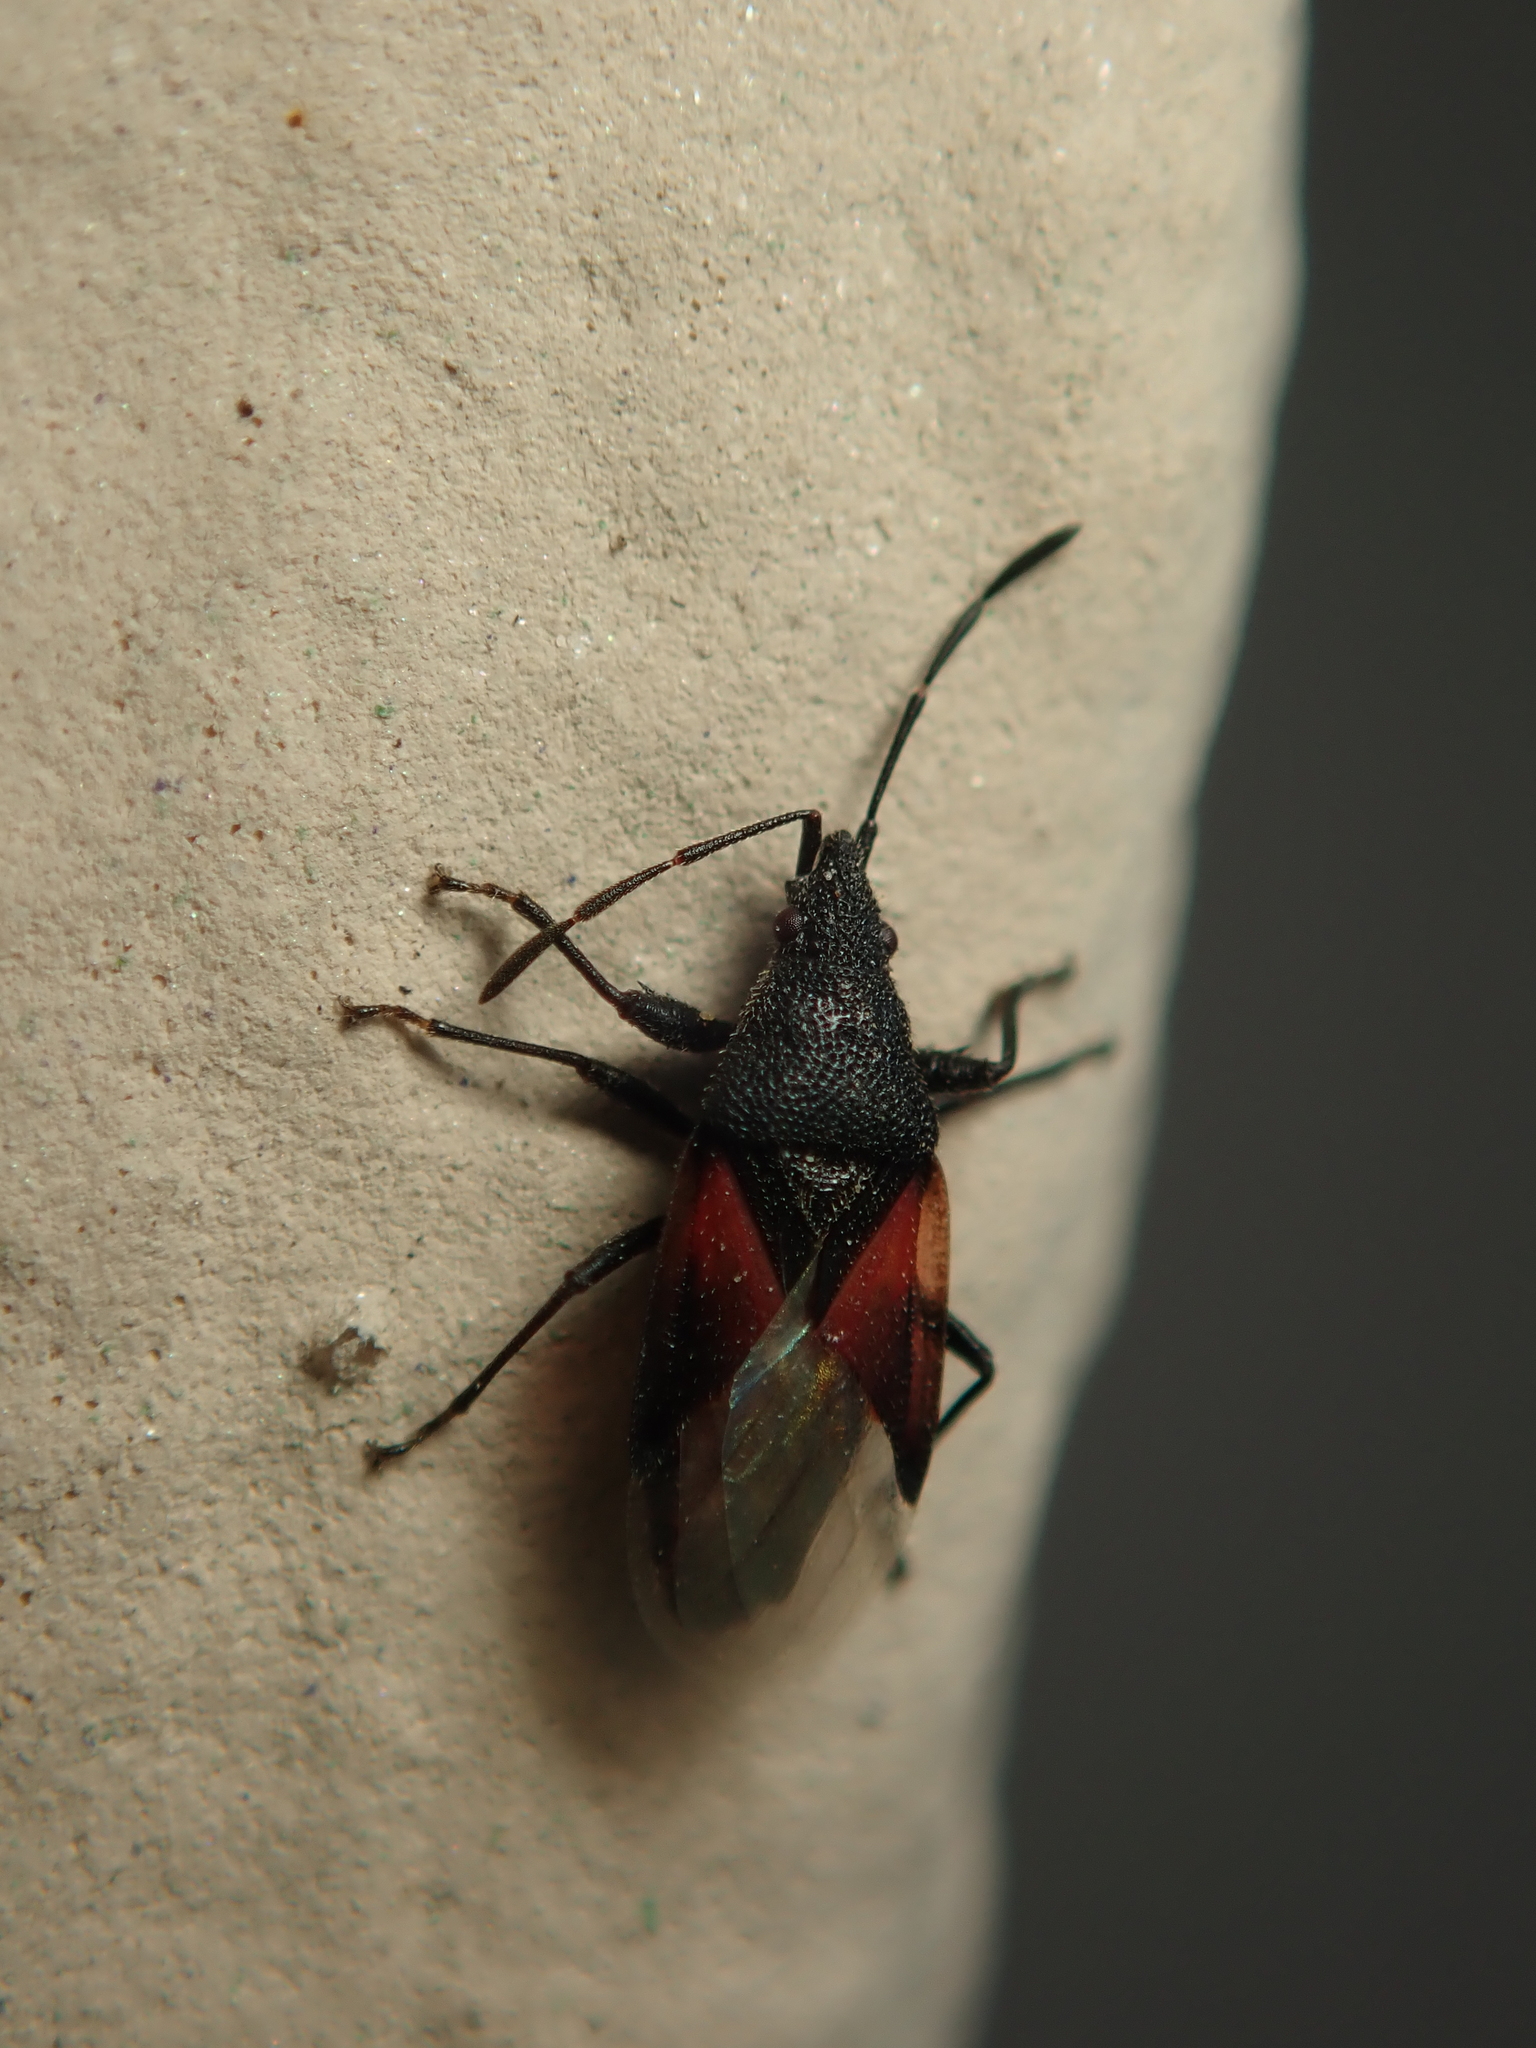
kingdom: Animalia
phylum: Arthropoda
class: Insecta
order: Hemiptera
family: Oxycarenidae
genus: Oxycarenus
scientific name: Oxycarenus lavaterae
